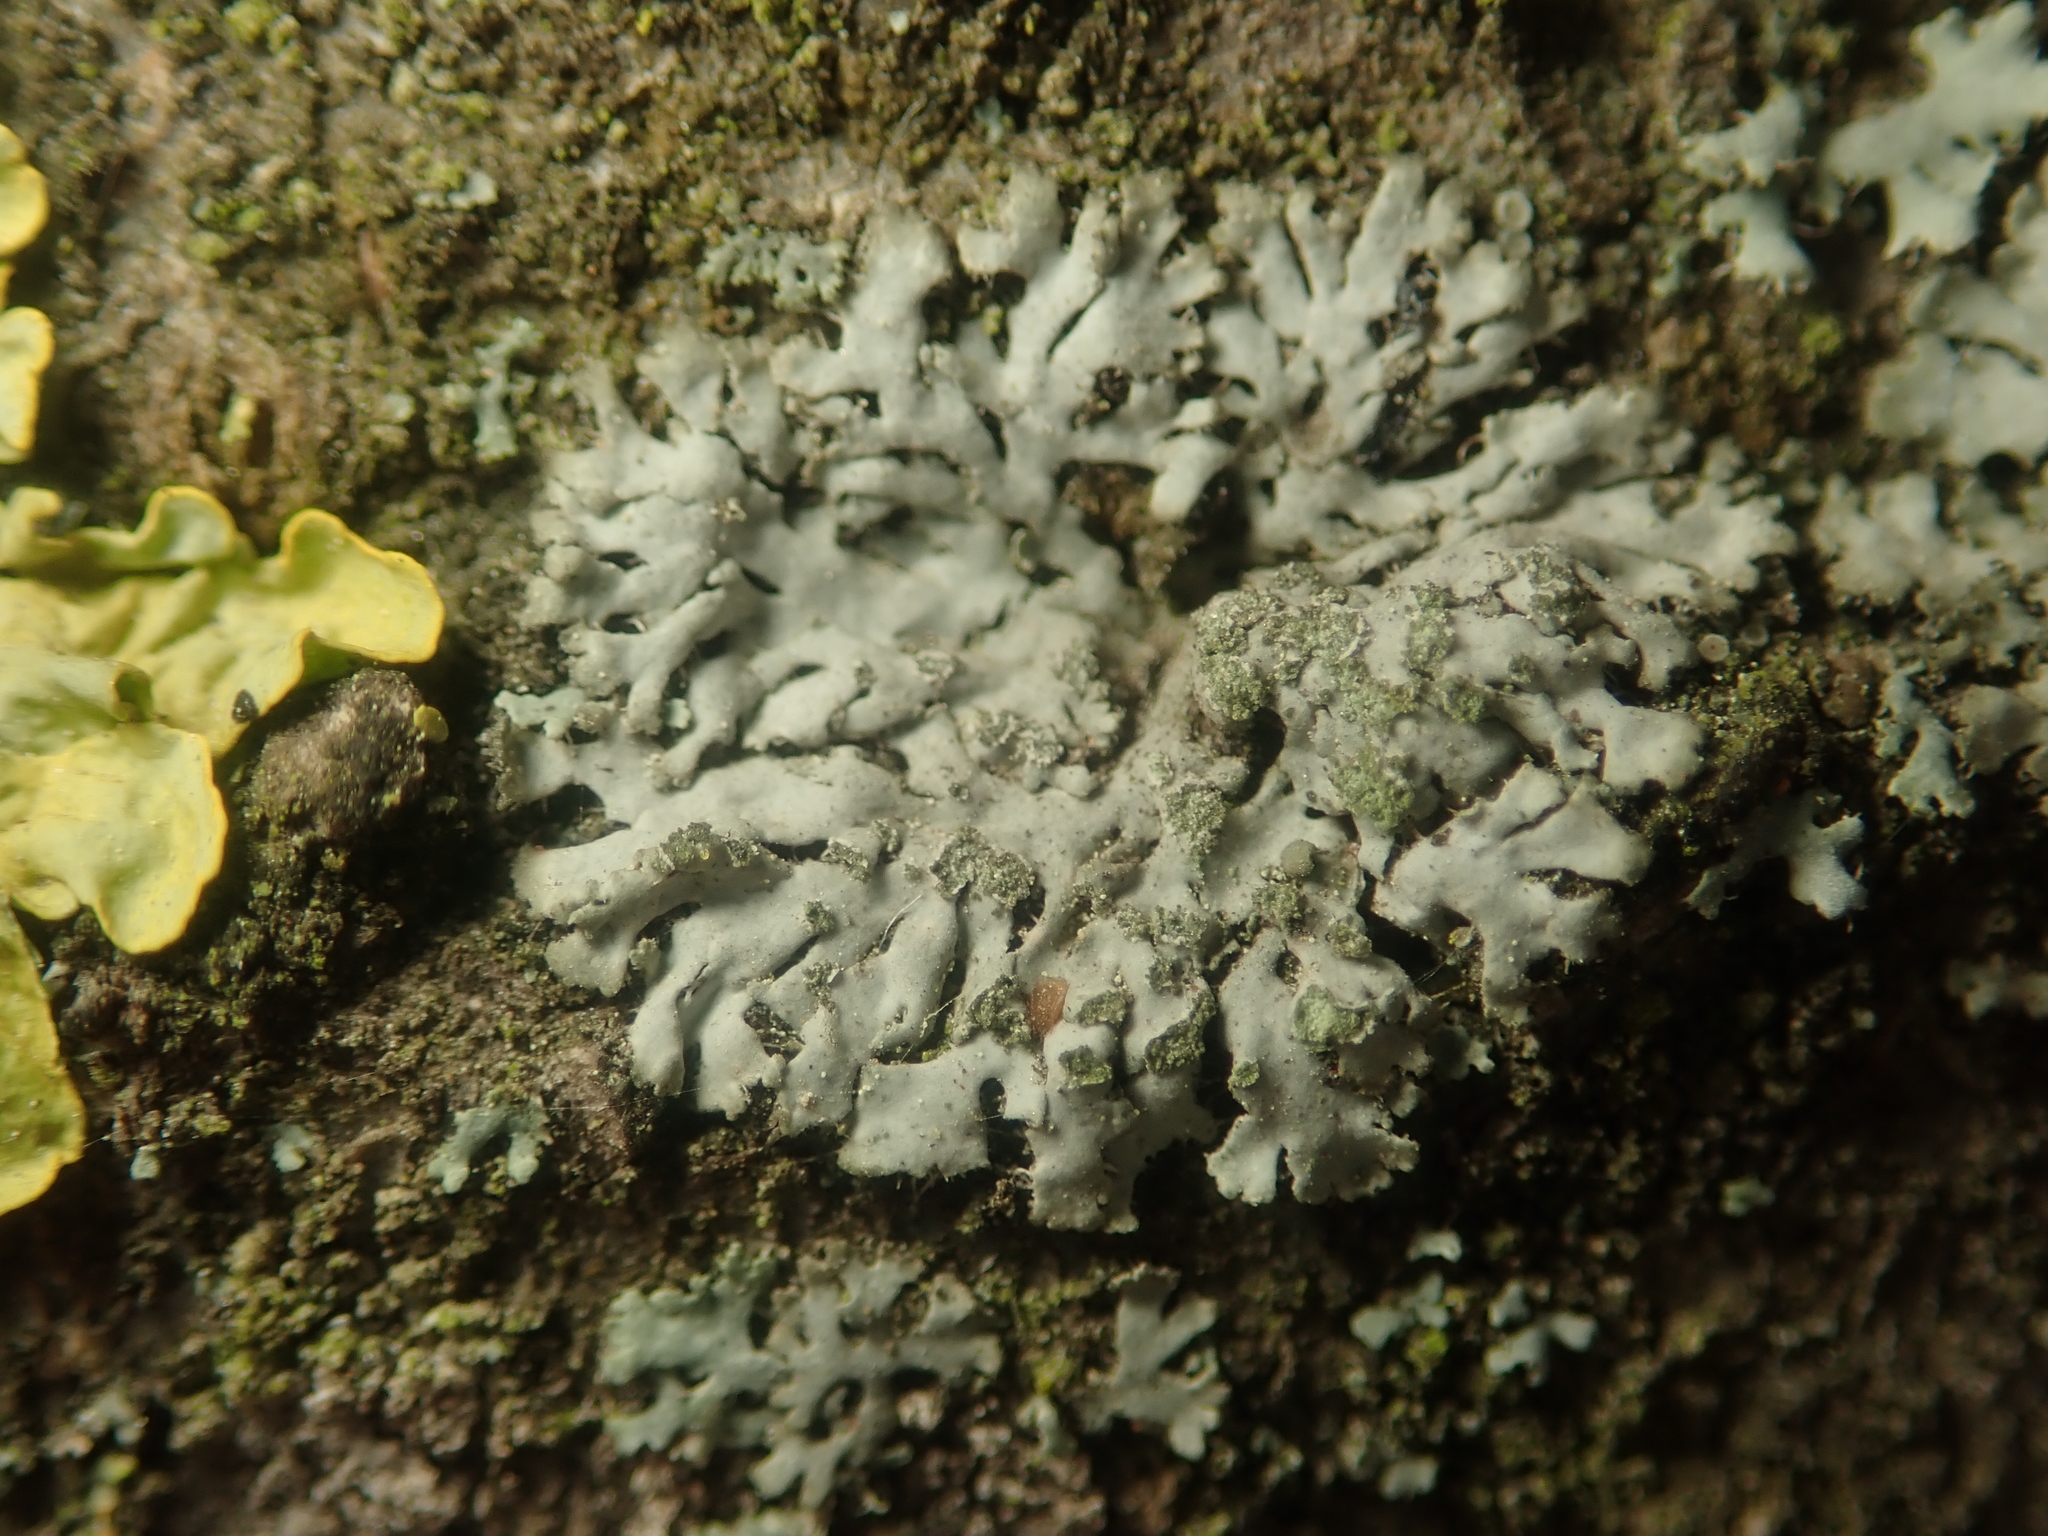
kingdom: Fungi
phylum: Ascomycota
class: Lecanoromycetes
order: Caliciales
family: Physciaceae
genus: Phaeophyscia
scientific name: Phaeophyscia orbicularis
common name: Mealy shadow lichen
